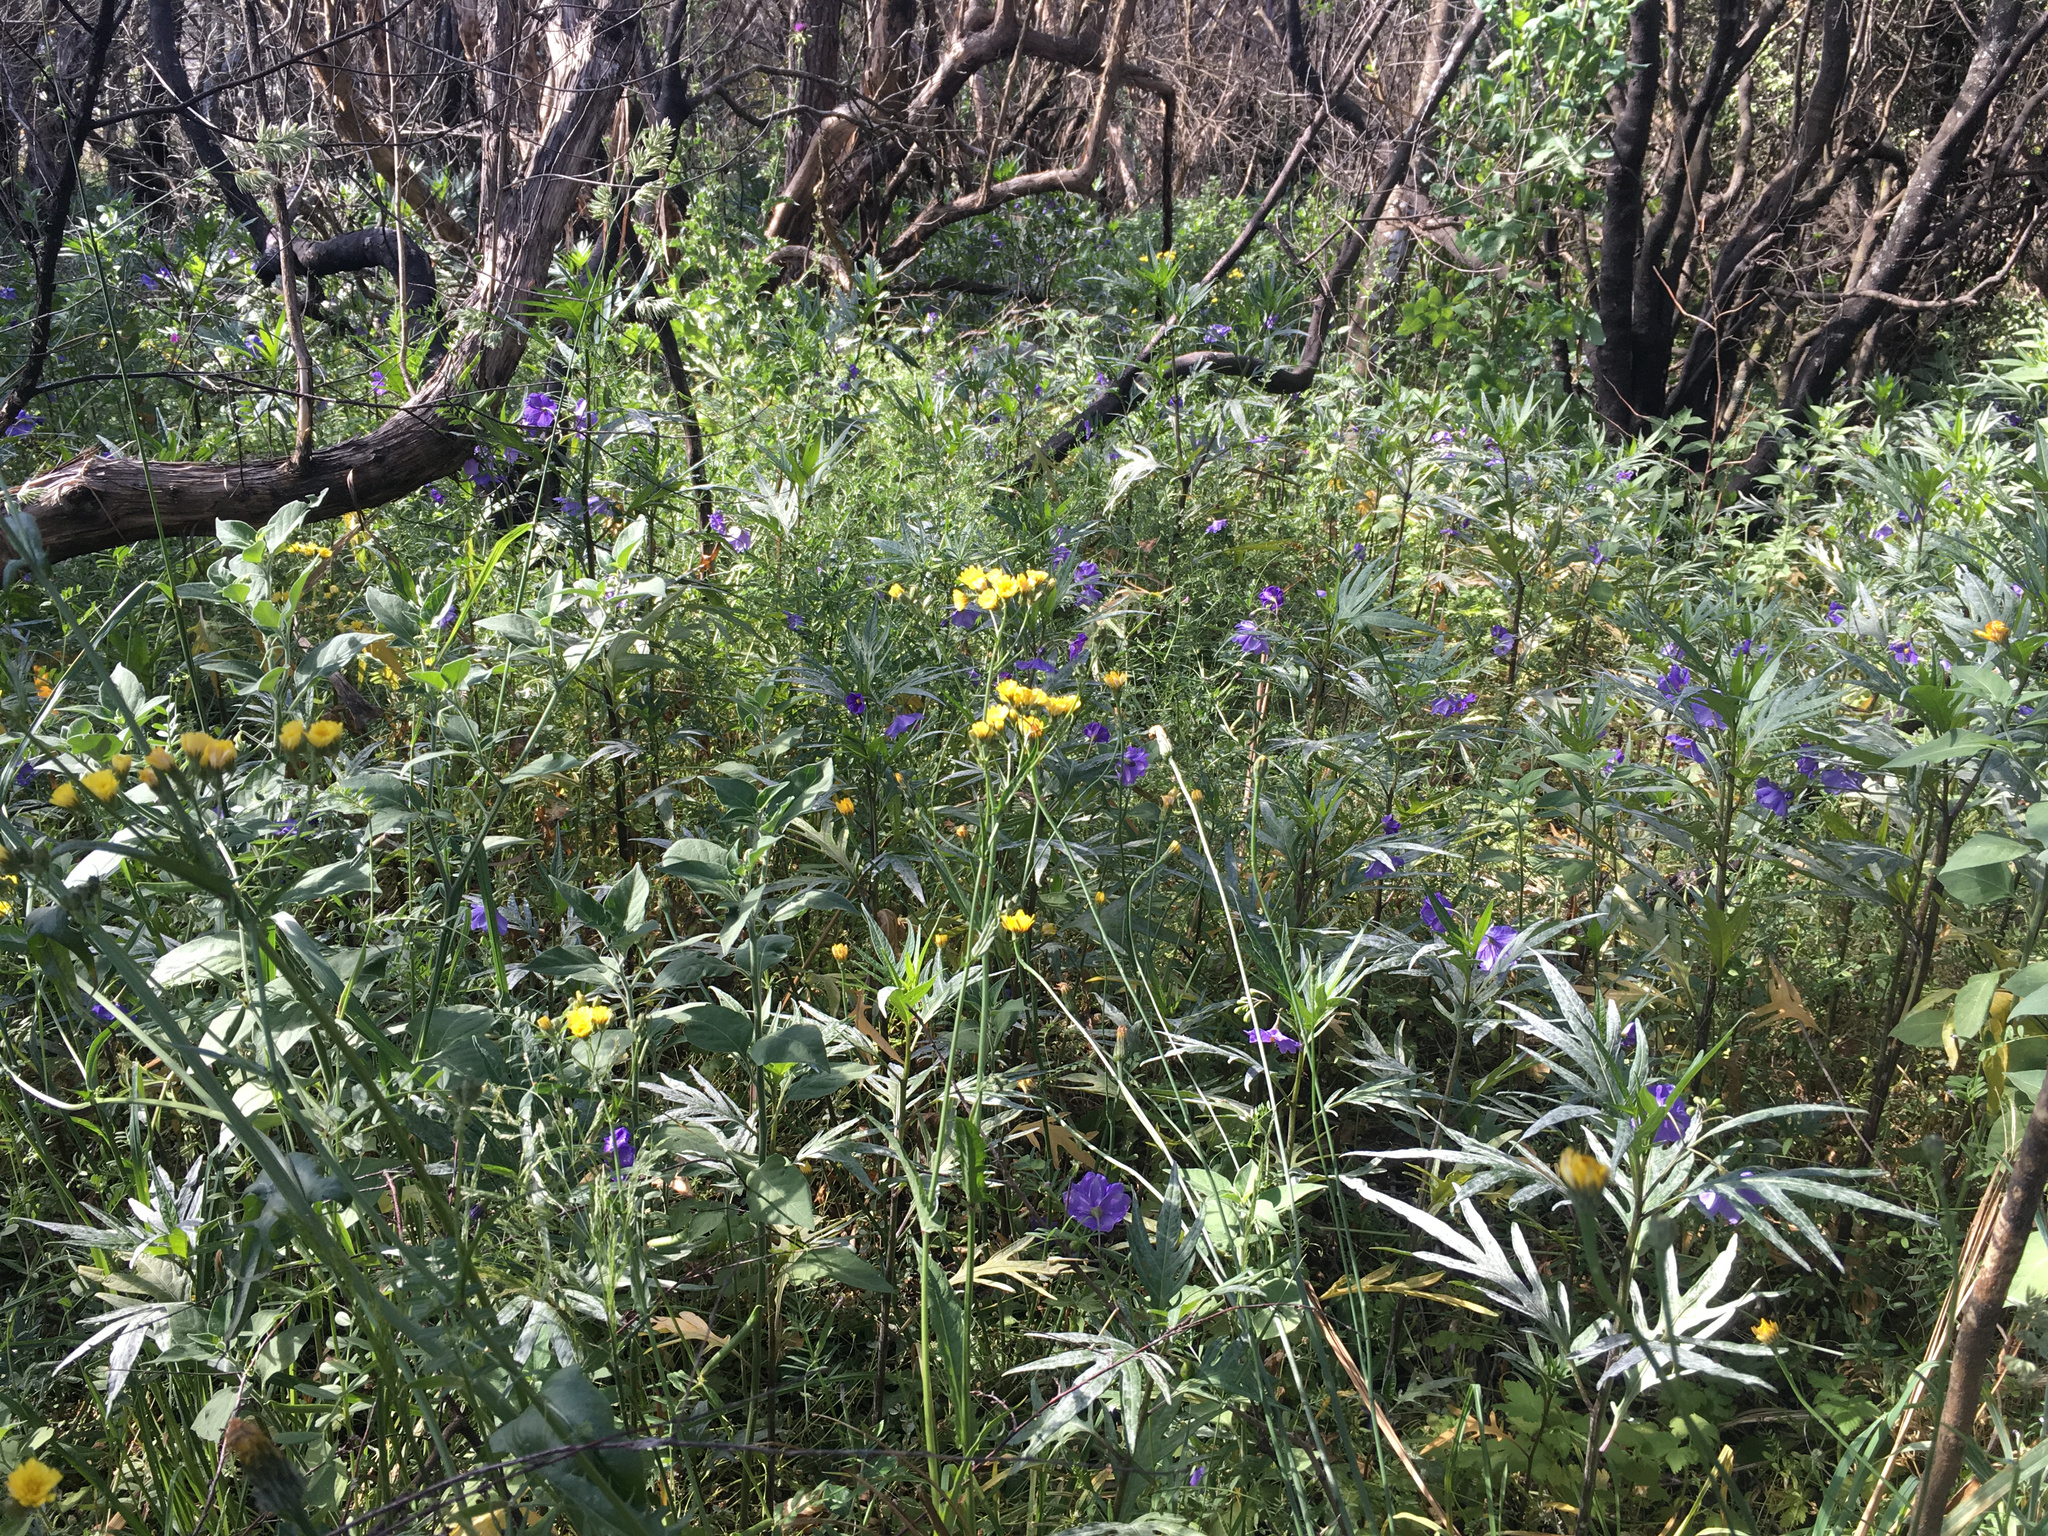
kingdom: Plantae
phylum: Tracheophyta
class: Magnoliopsida
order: Solanales
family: Solanaceae
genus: Solanum
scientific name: Solanum laciniatum
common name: Kangaroo-apple
